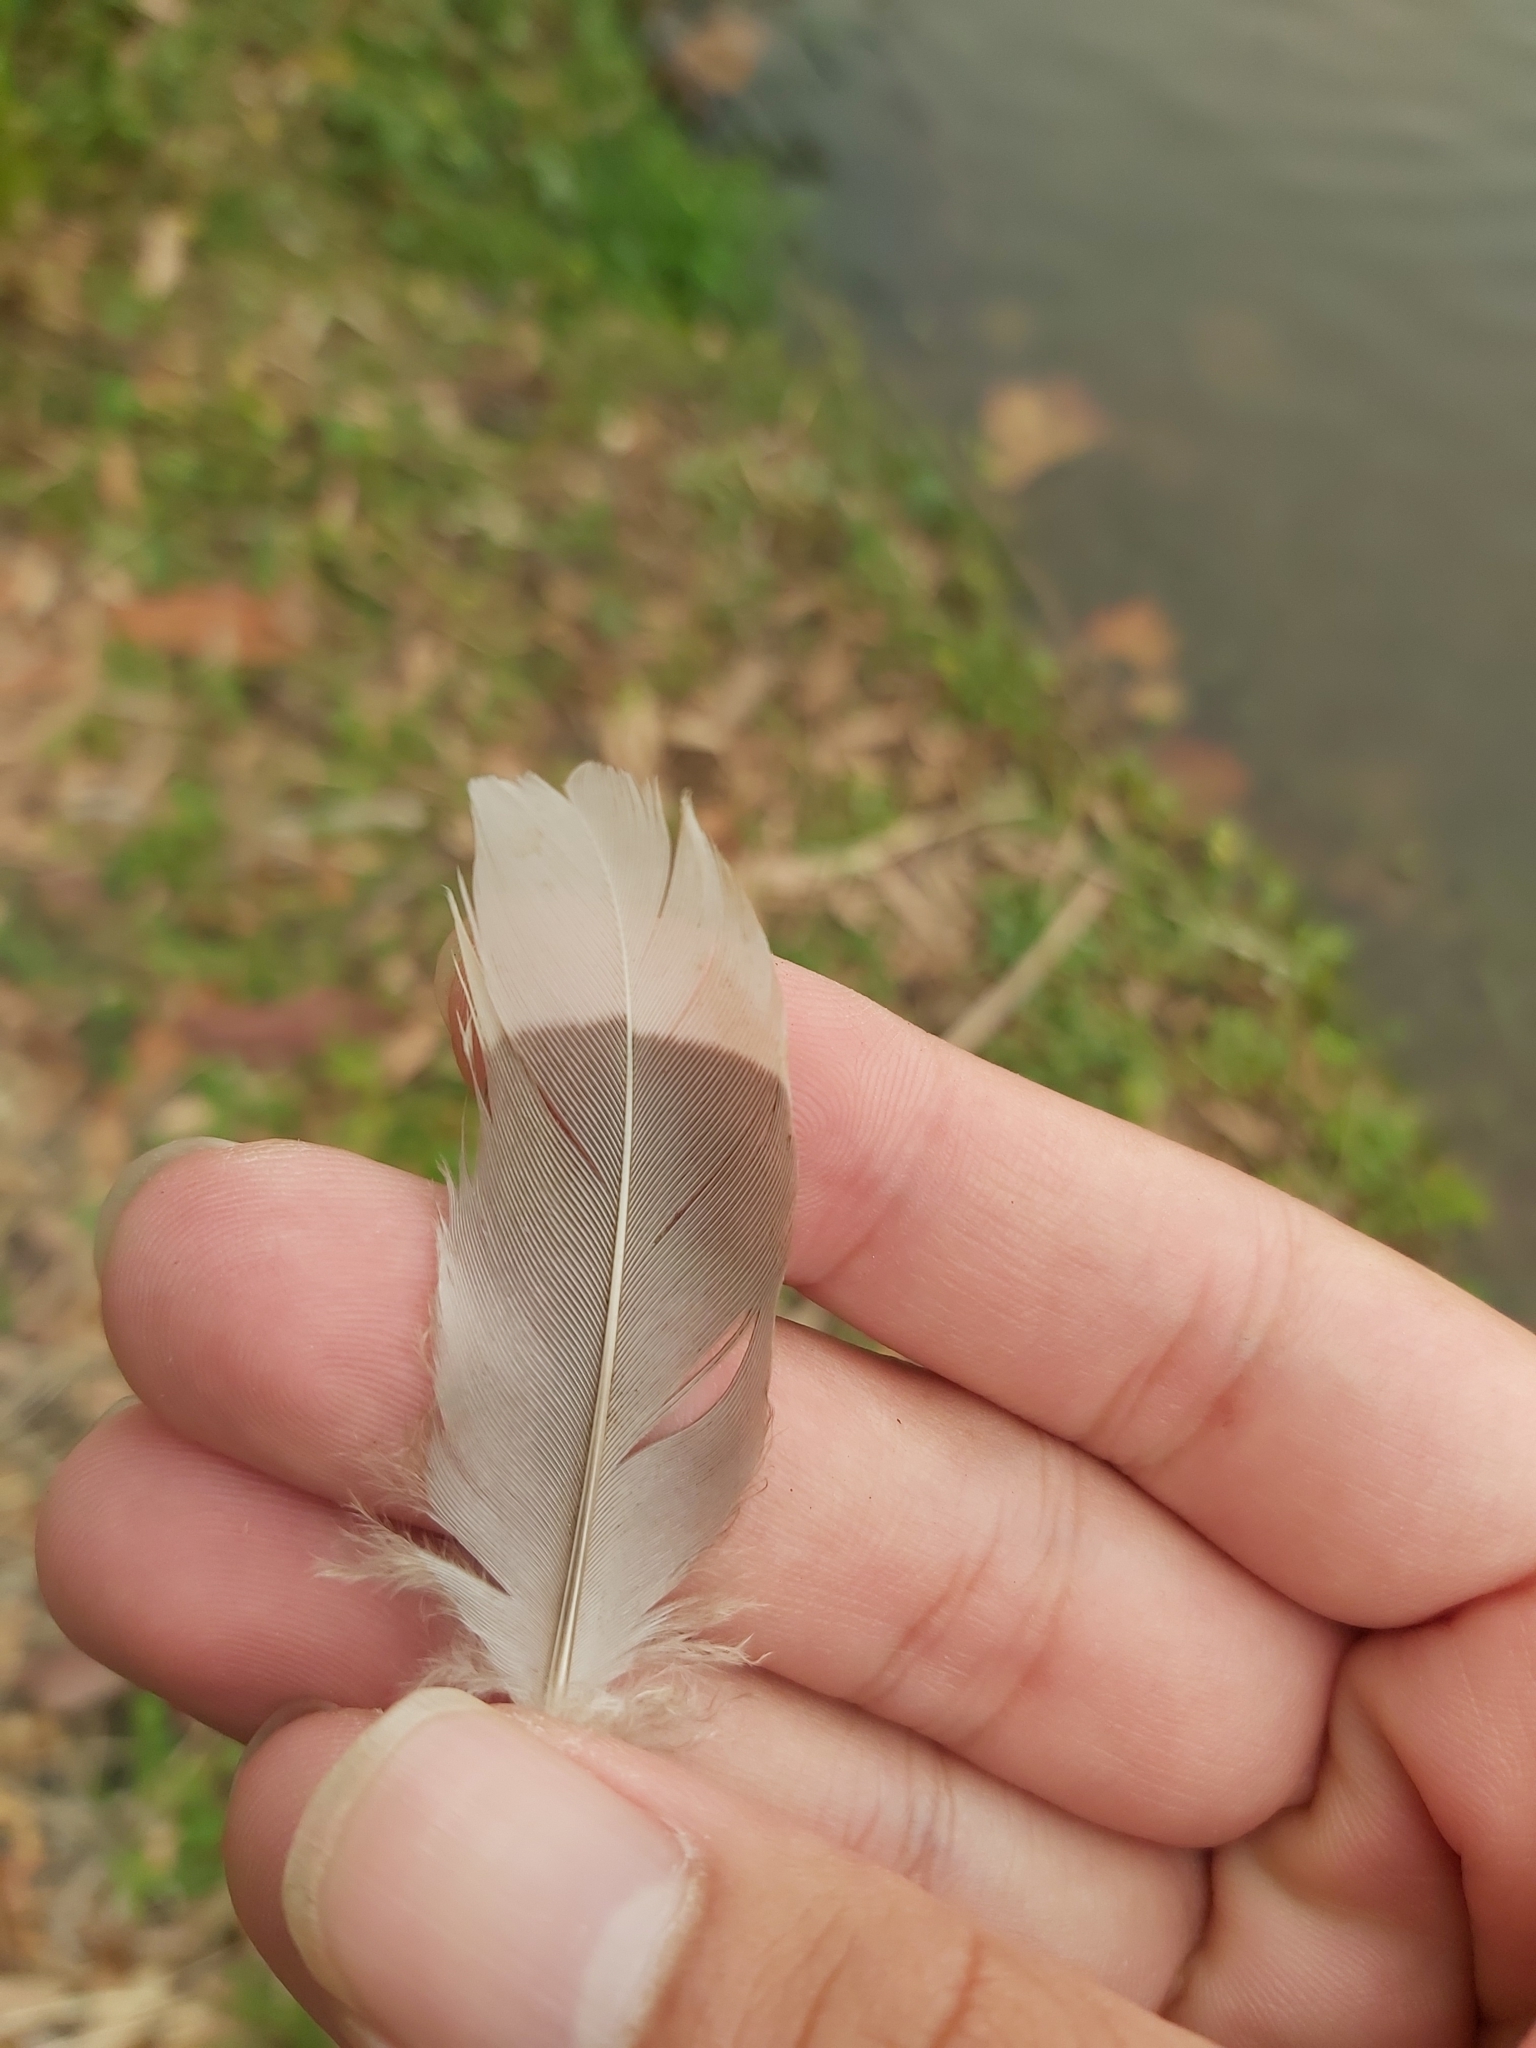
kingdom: Animalia
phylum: Chordata
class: Aves
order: Anseriformes
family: Anatidae
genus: Chenonetta
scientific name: Chenonetta jubata
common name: Maned duck
